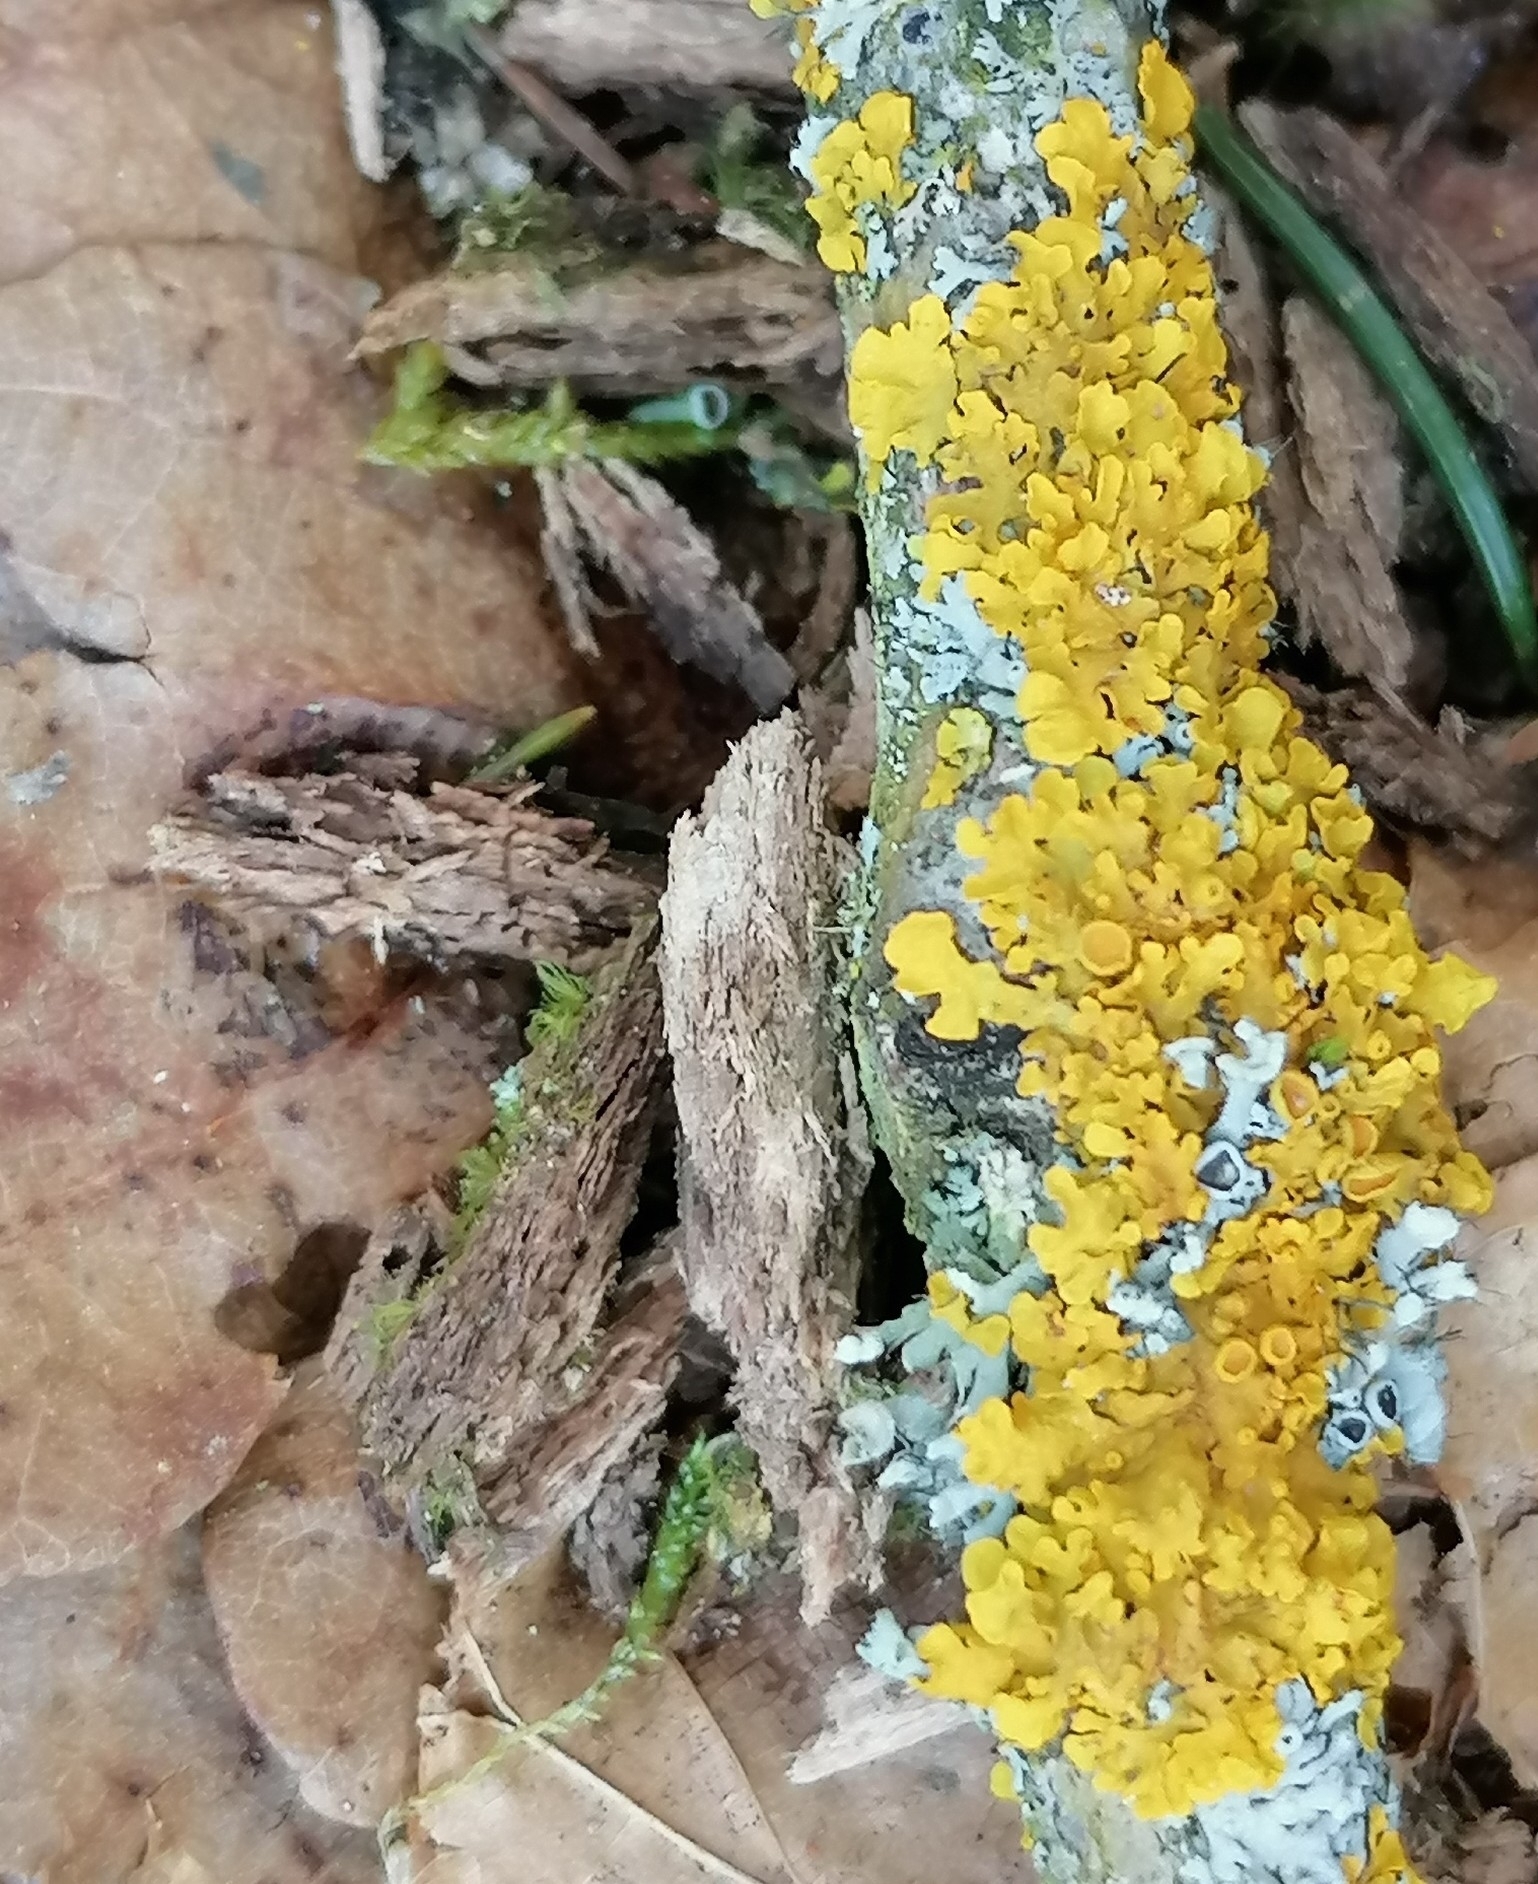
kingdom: Fungi
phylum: Ascomycota
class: Lecanoromycetes
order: Teloschistales
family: Teloschistaceae
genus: Xanthoria
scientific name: Xanthoria parietina
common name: Common orange lichen
